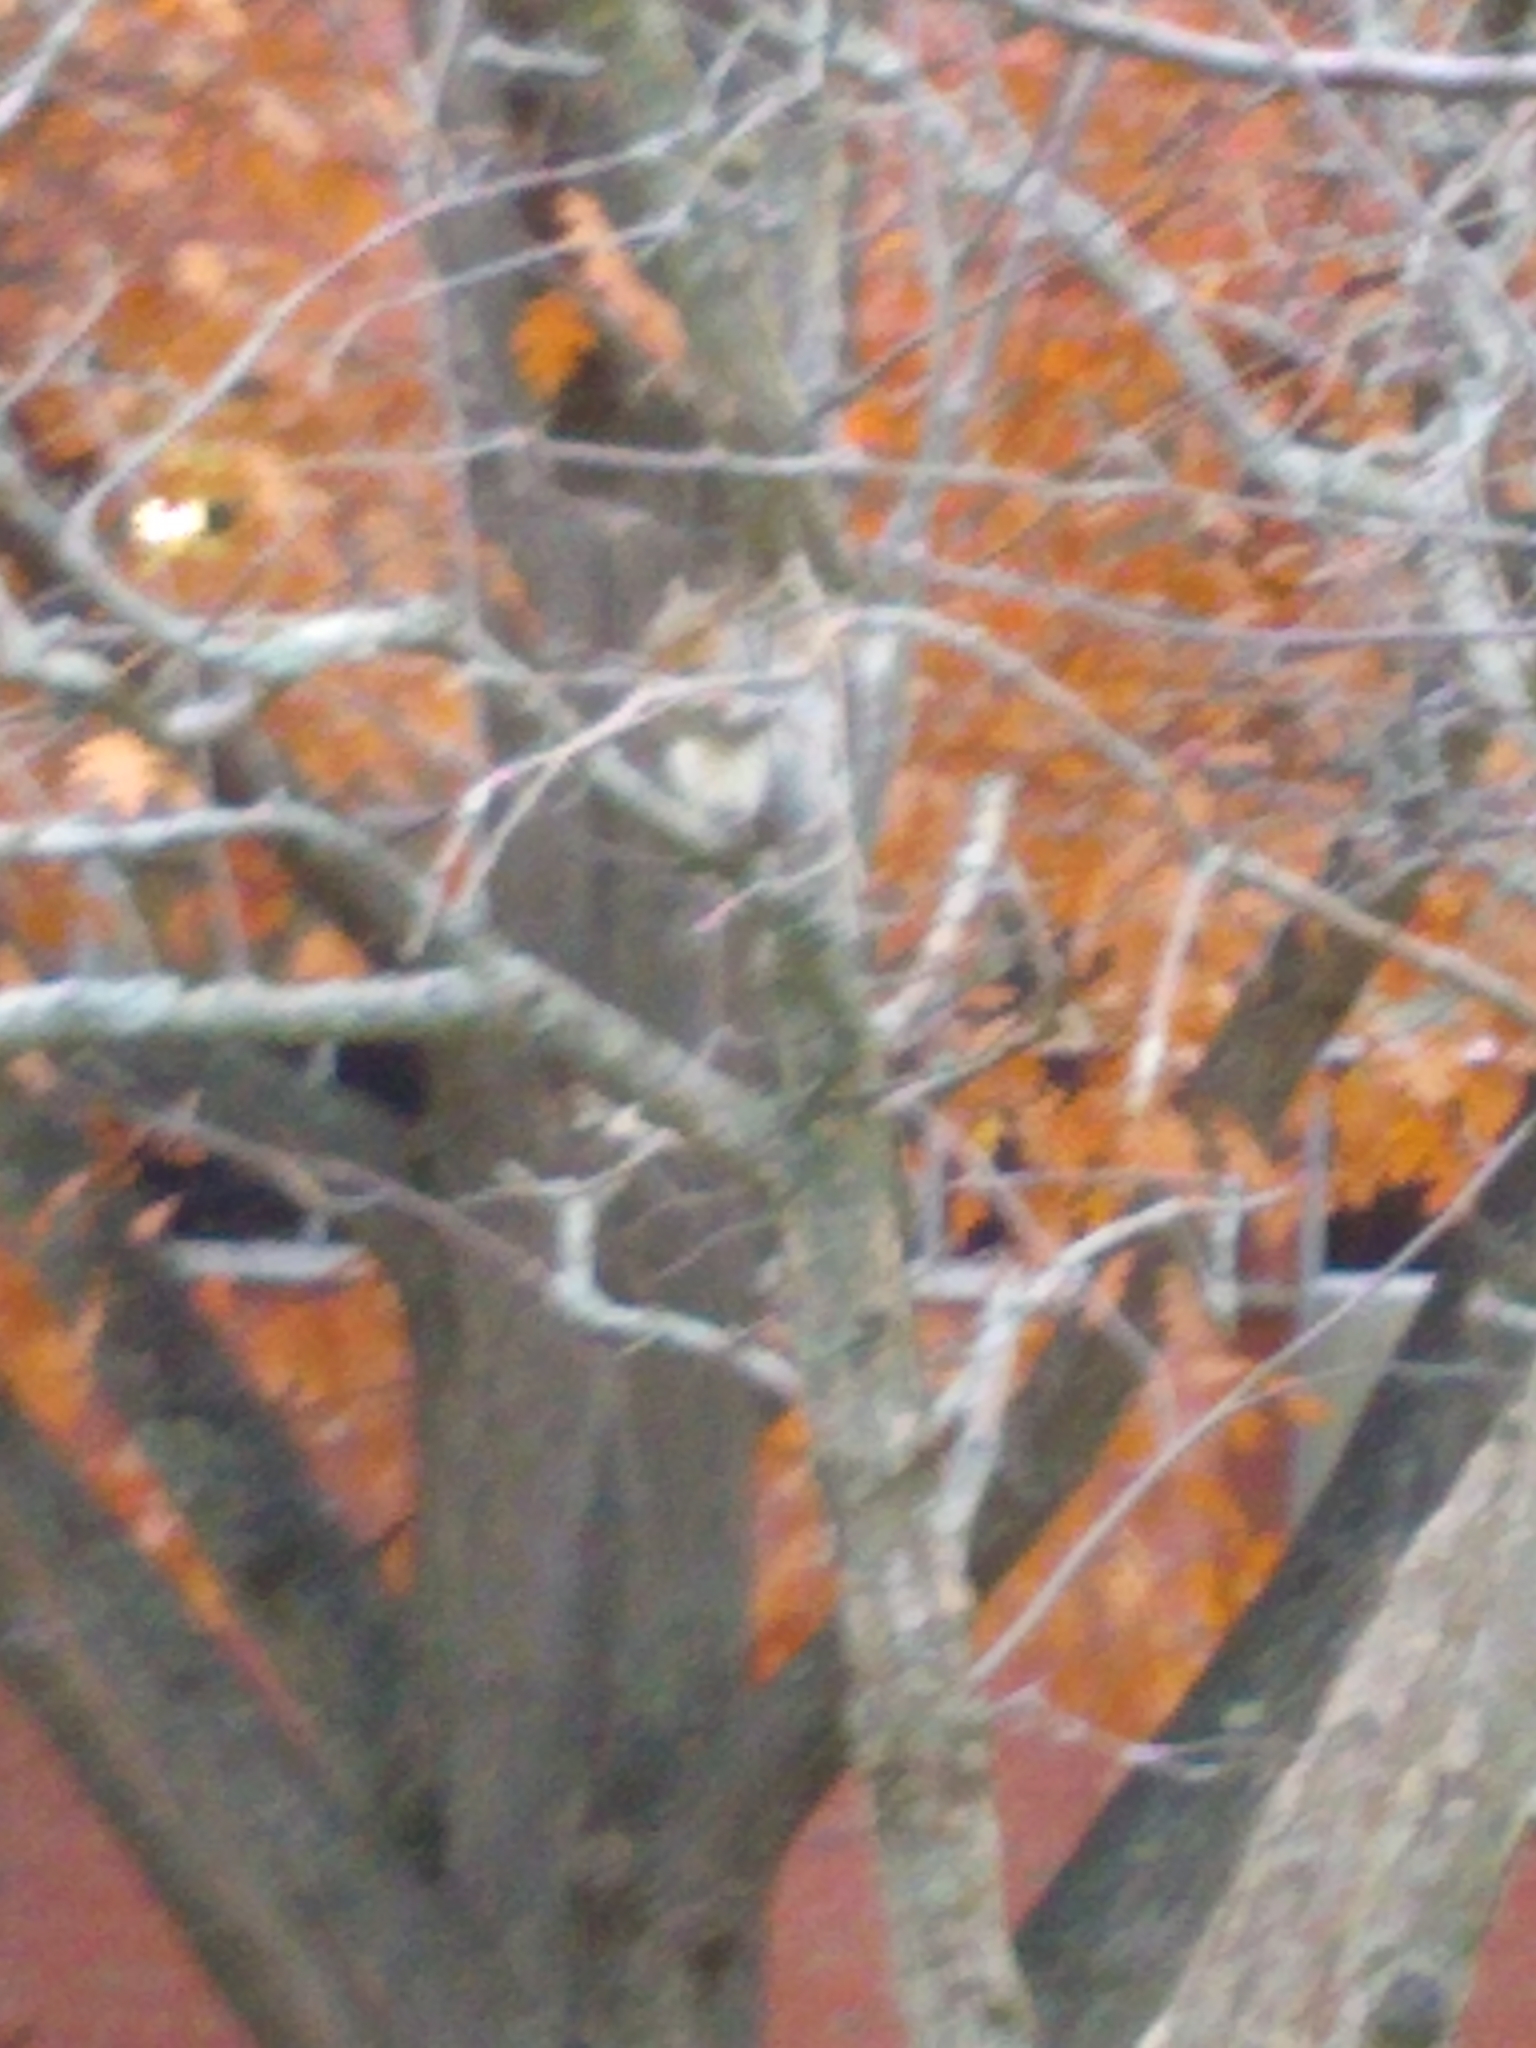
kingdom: Animalia
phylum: Chordata
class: Mammalia
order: Rodentia
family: Sciuridae
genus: Sciurus
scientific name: Sciurus carolinensis
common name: Eastern gray squirrel
